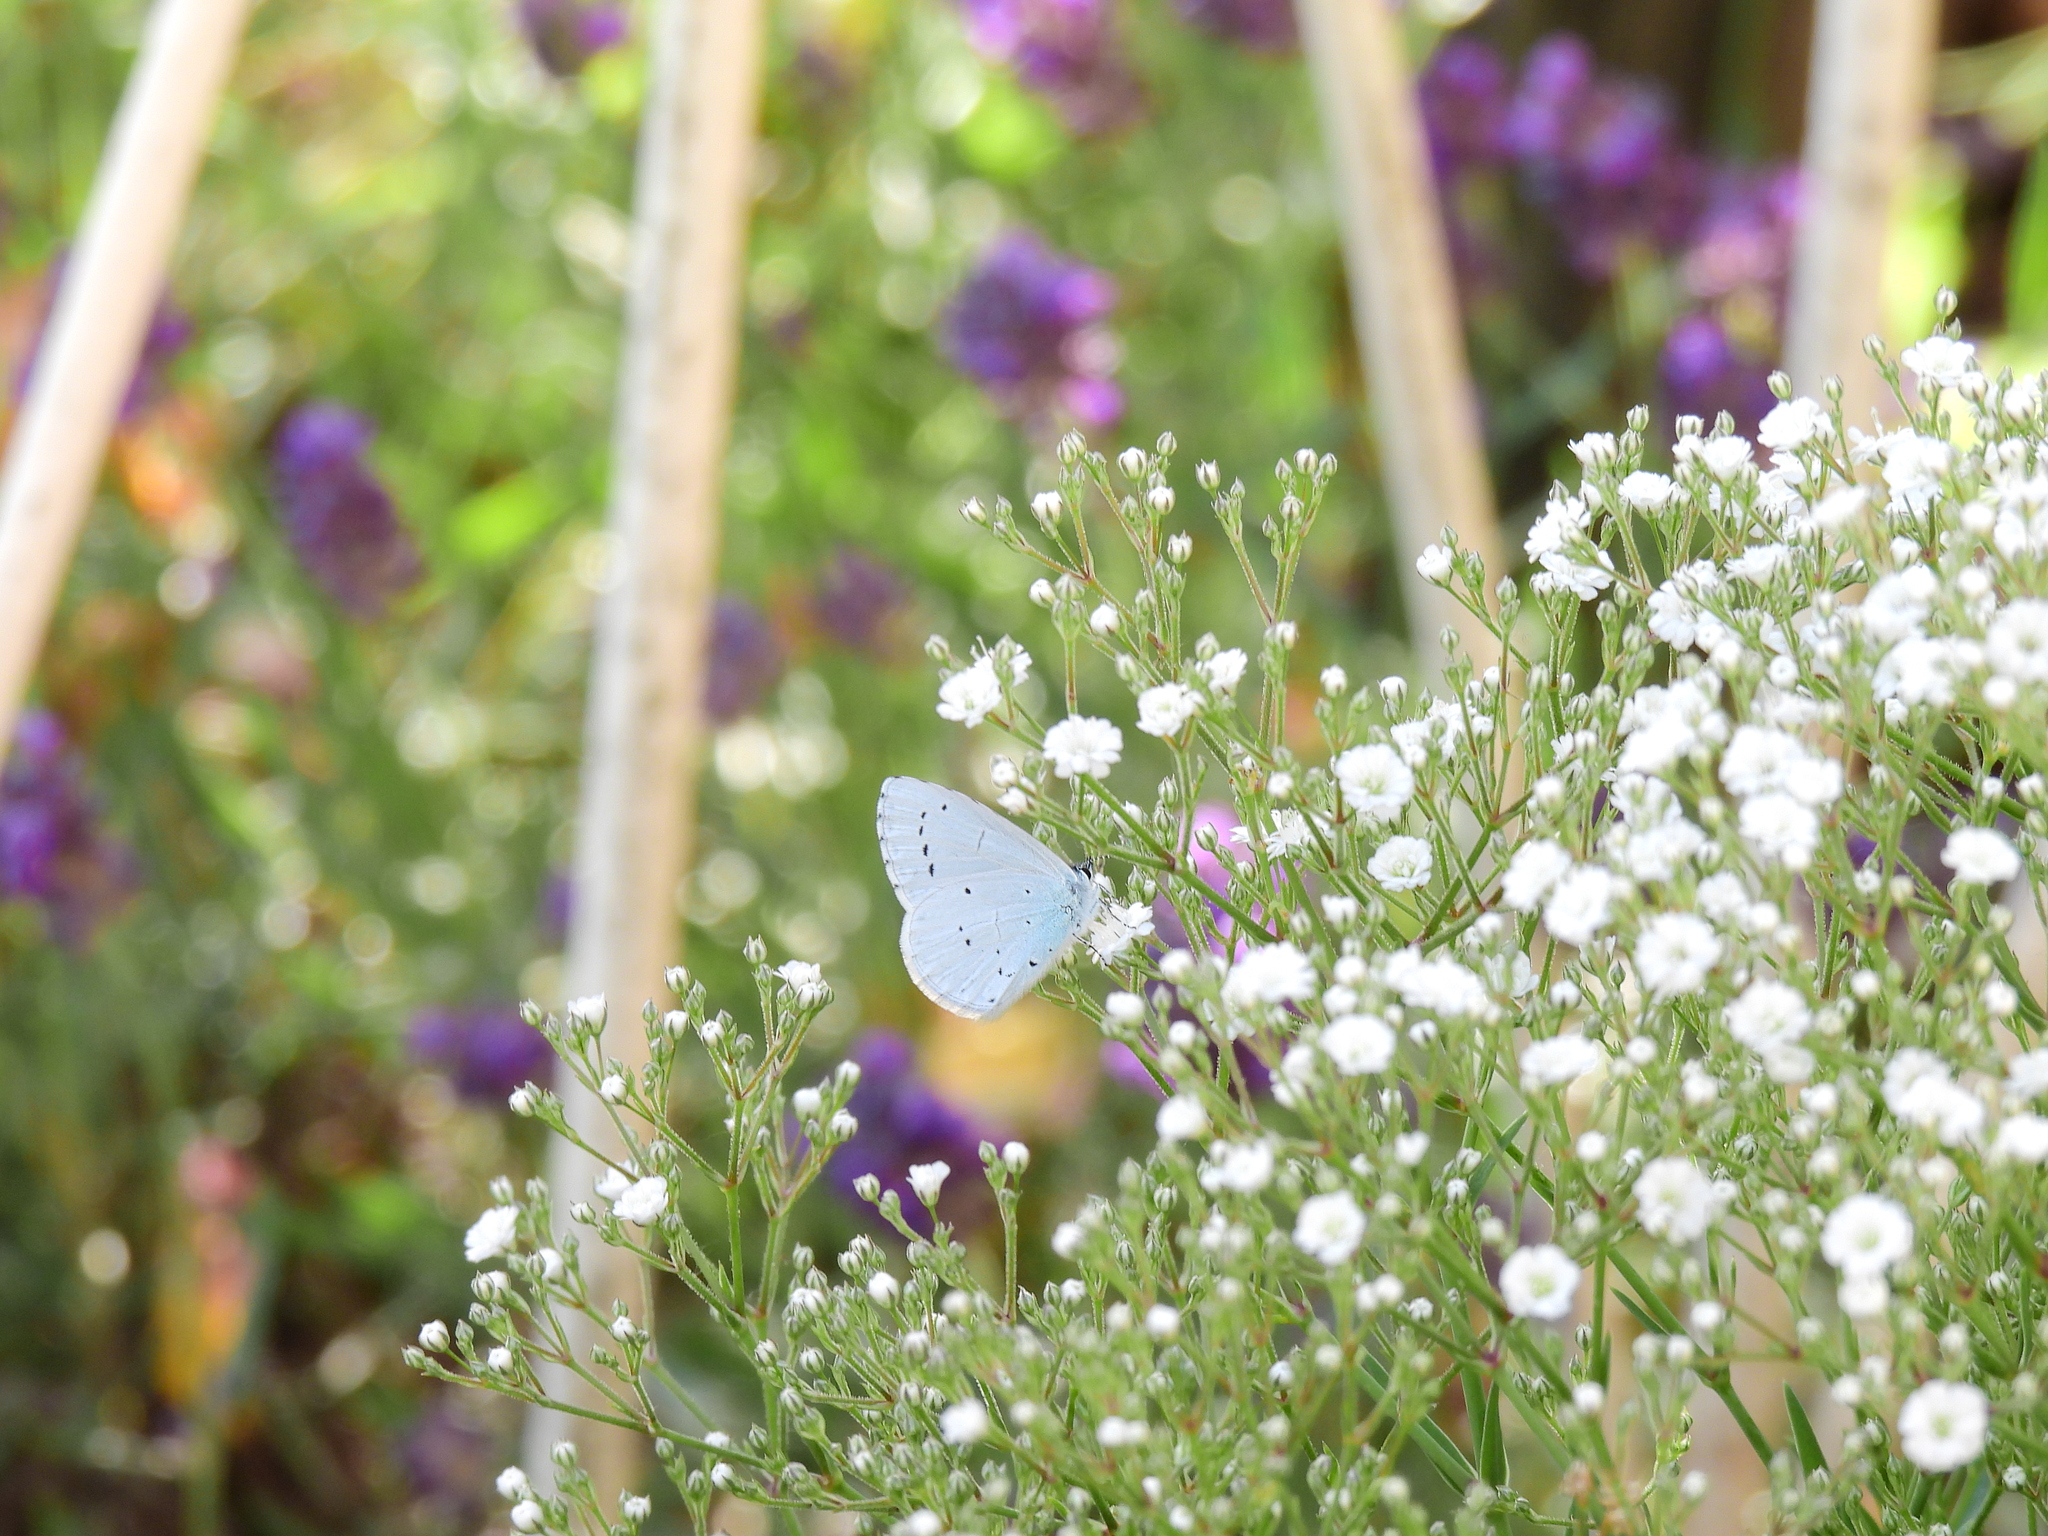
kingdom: Animalia
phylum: Arthropoda
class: Insecta
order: Lepidoptera
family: Lycaenidae
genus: Celastrina
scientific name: Celastrina argiolus
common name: Holly blue
